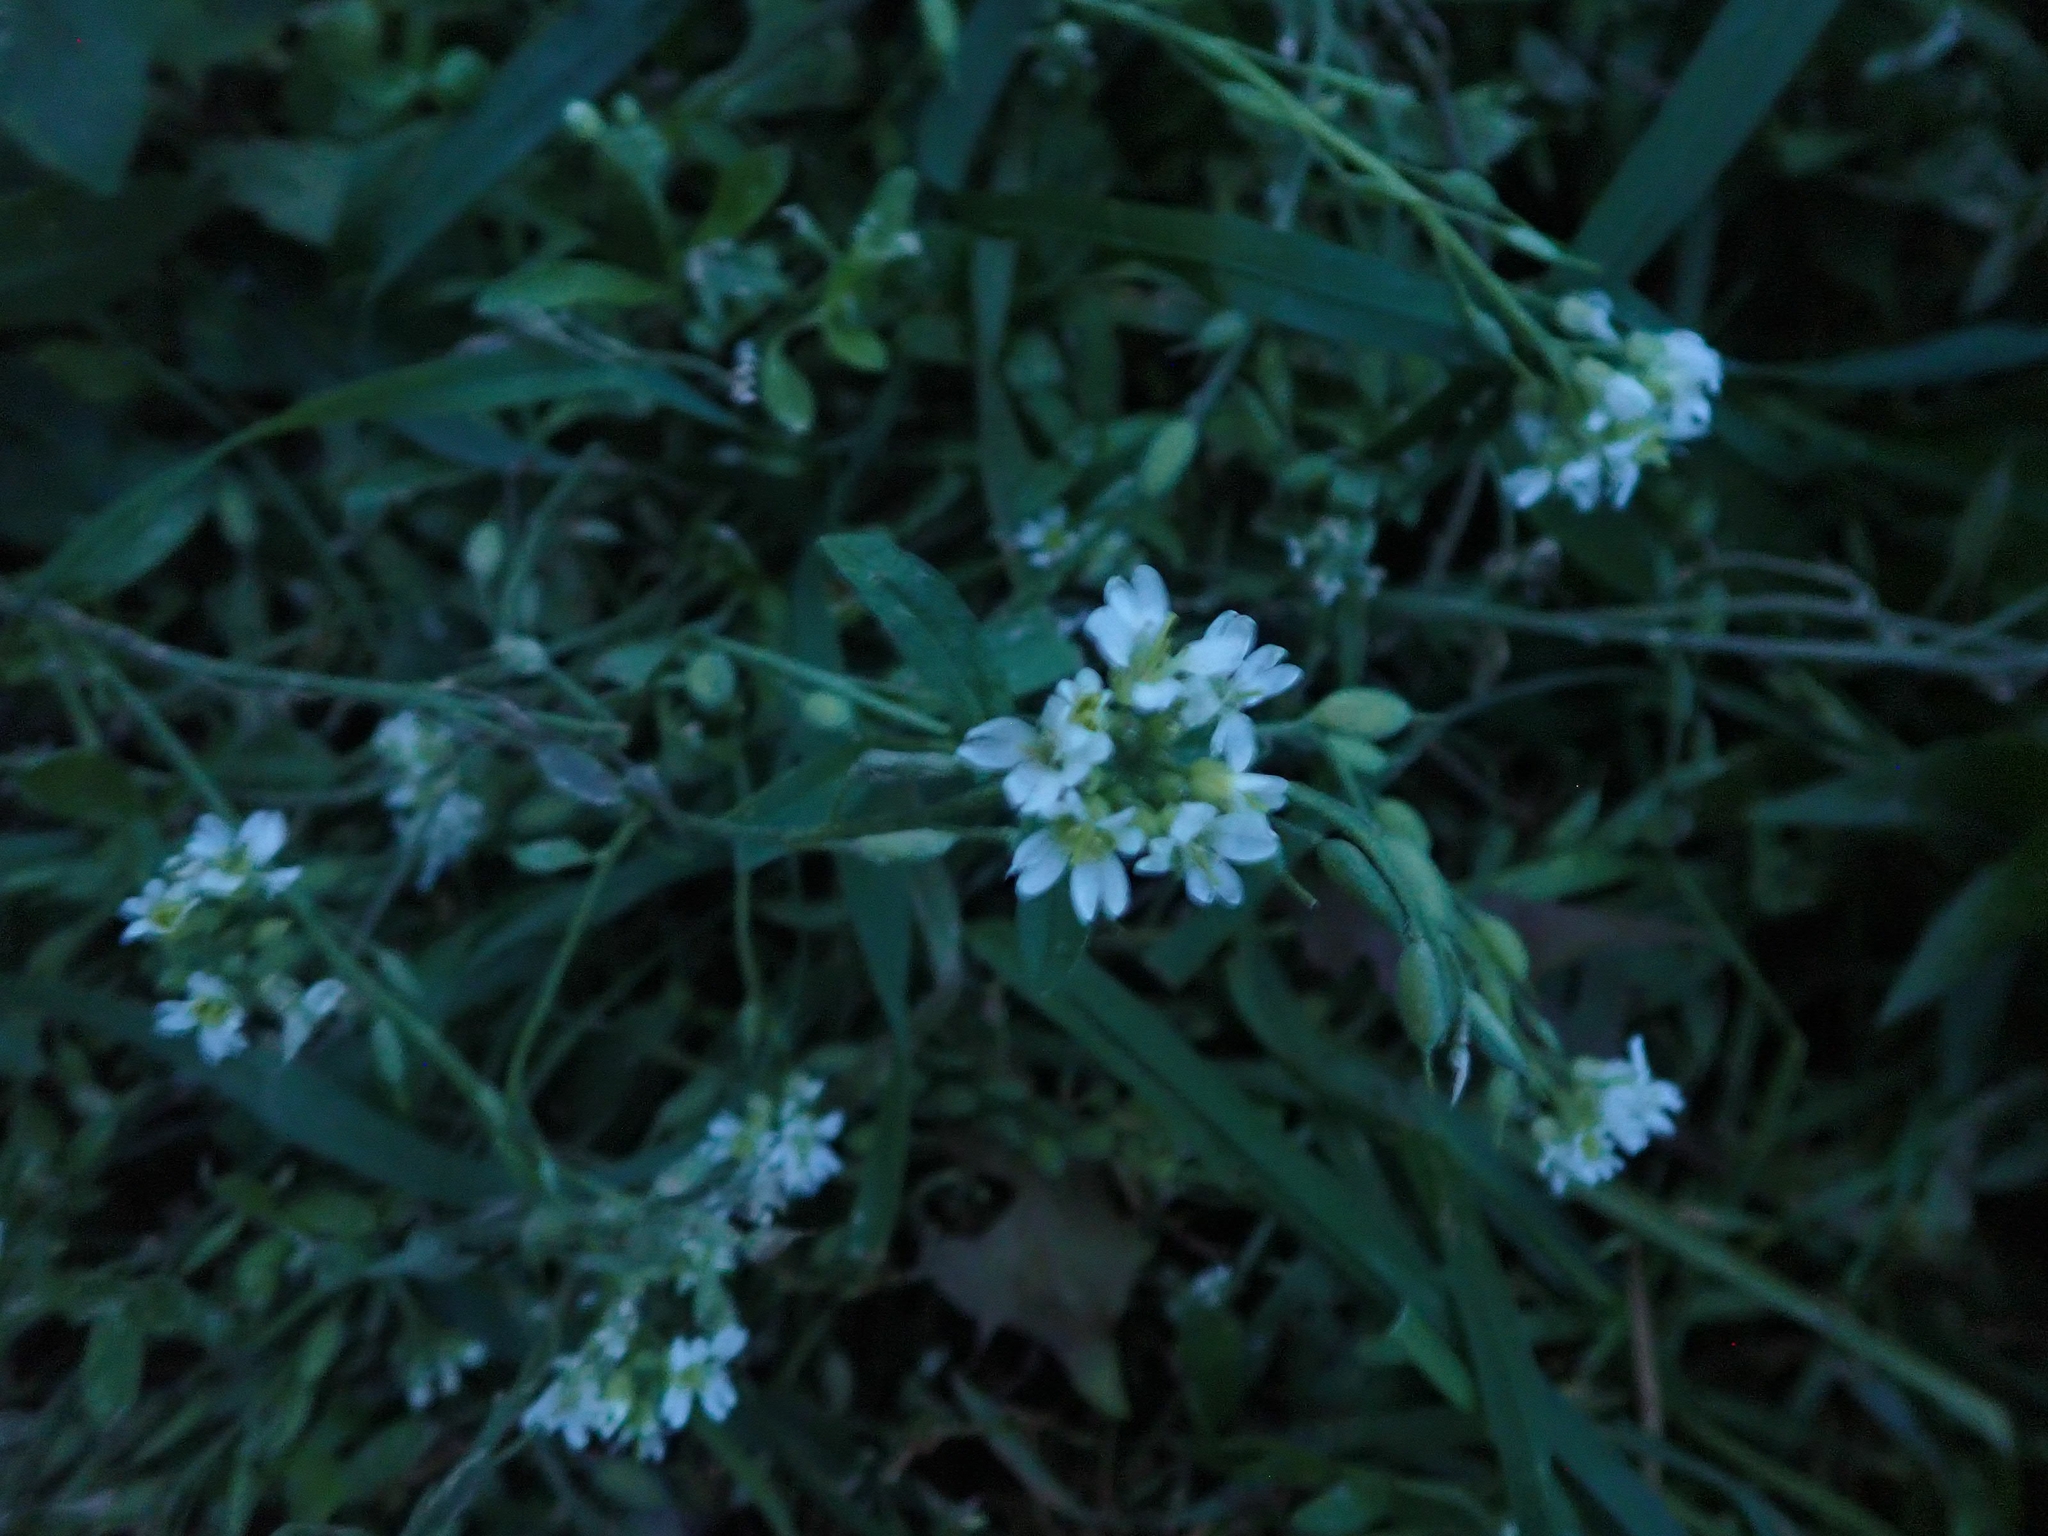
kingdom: Plantae
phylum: Tracheophyta
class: Magnoliopsida
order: Brassicales
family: Brassicaceae
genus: Berteroa
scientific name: Berteroa incana
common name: Hoary alison
